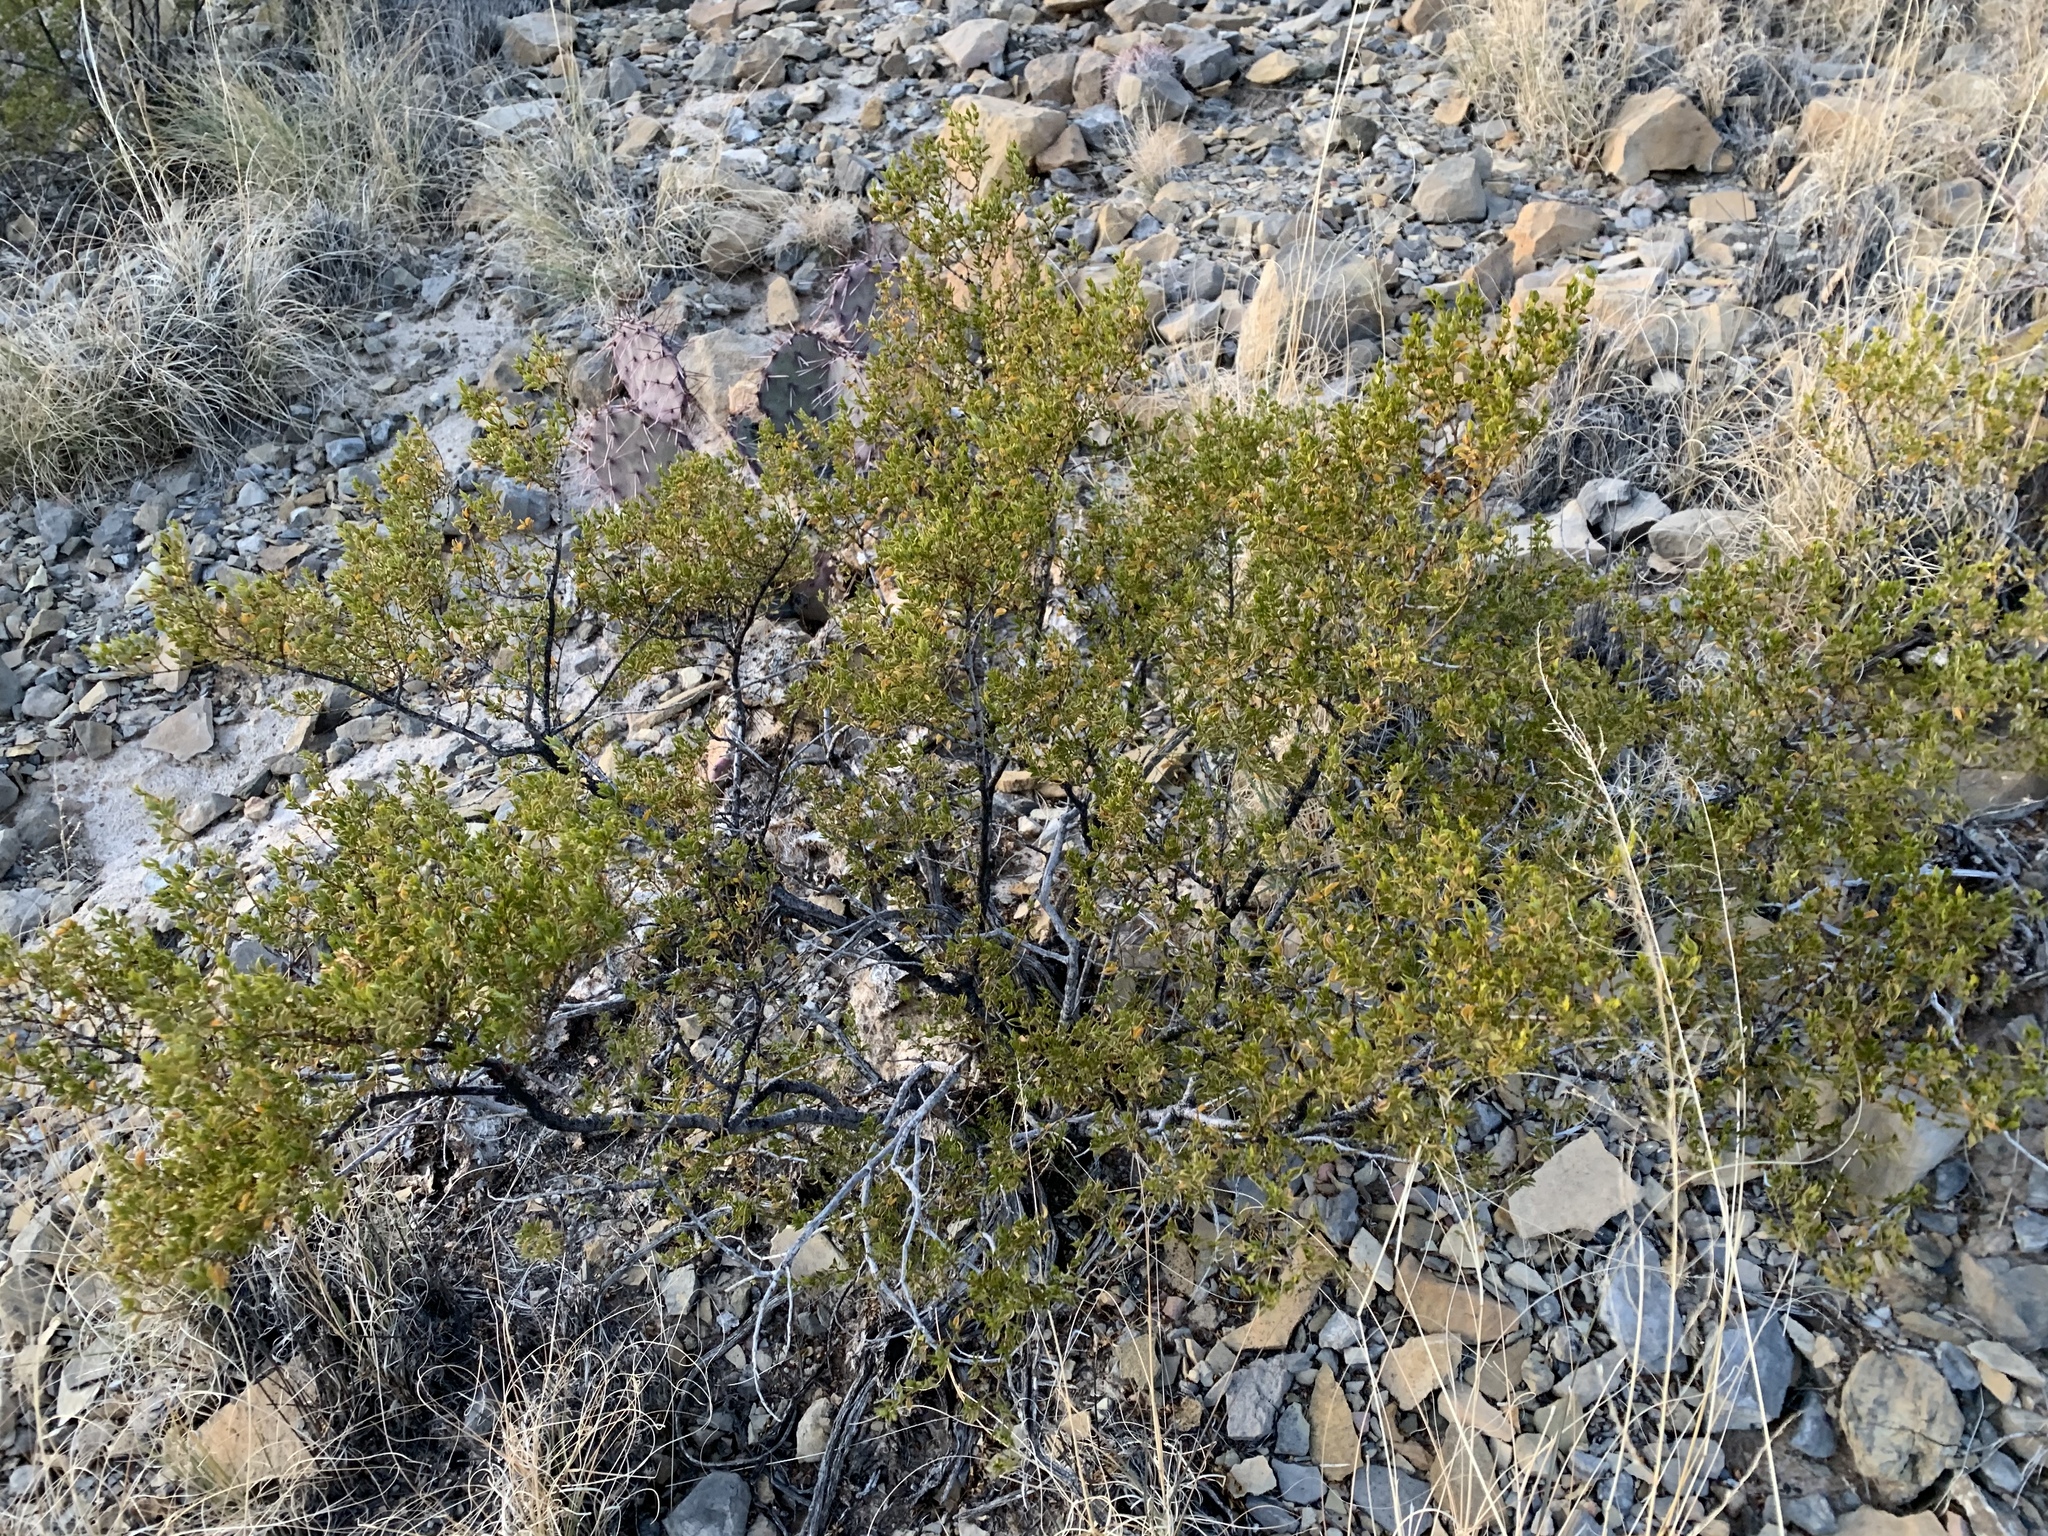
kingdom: Plantae
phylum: Tracheophyta
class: Magnoliopsida
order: Zygophyllales
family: Zygophyllaceae
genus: Larrea
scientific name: Larrea tridentata
